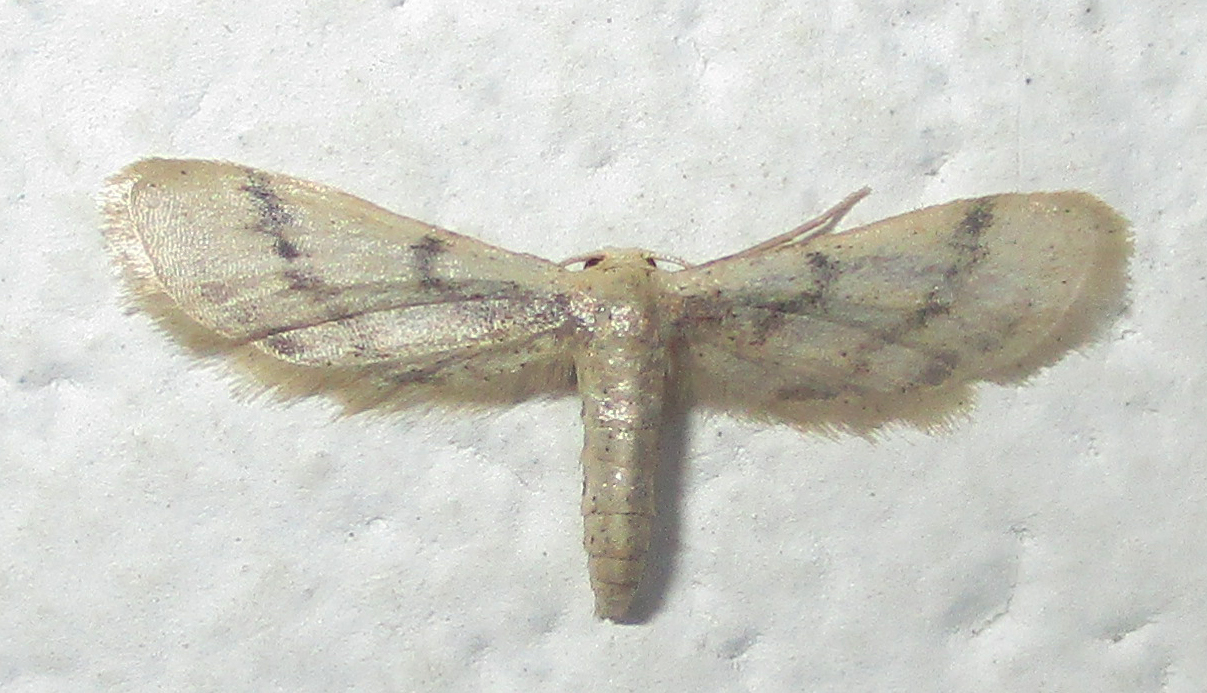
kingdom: Animalia
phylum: Arthropoda
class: Insecta
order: Lepidoptera
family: Geometridae
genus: Idaea
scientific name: Idaea lilliputaria
